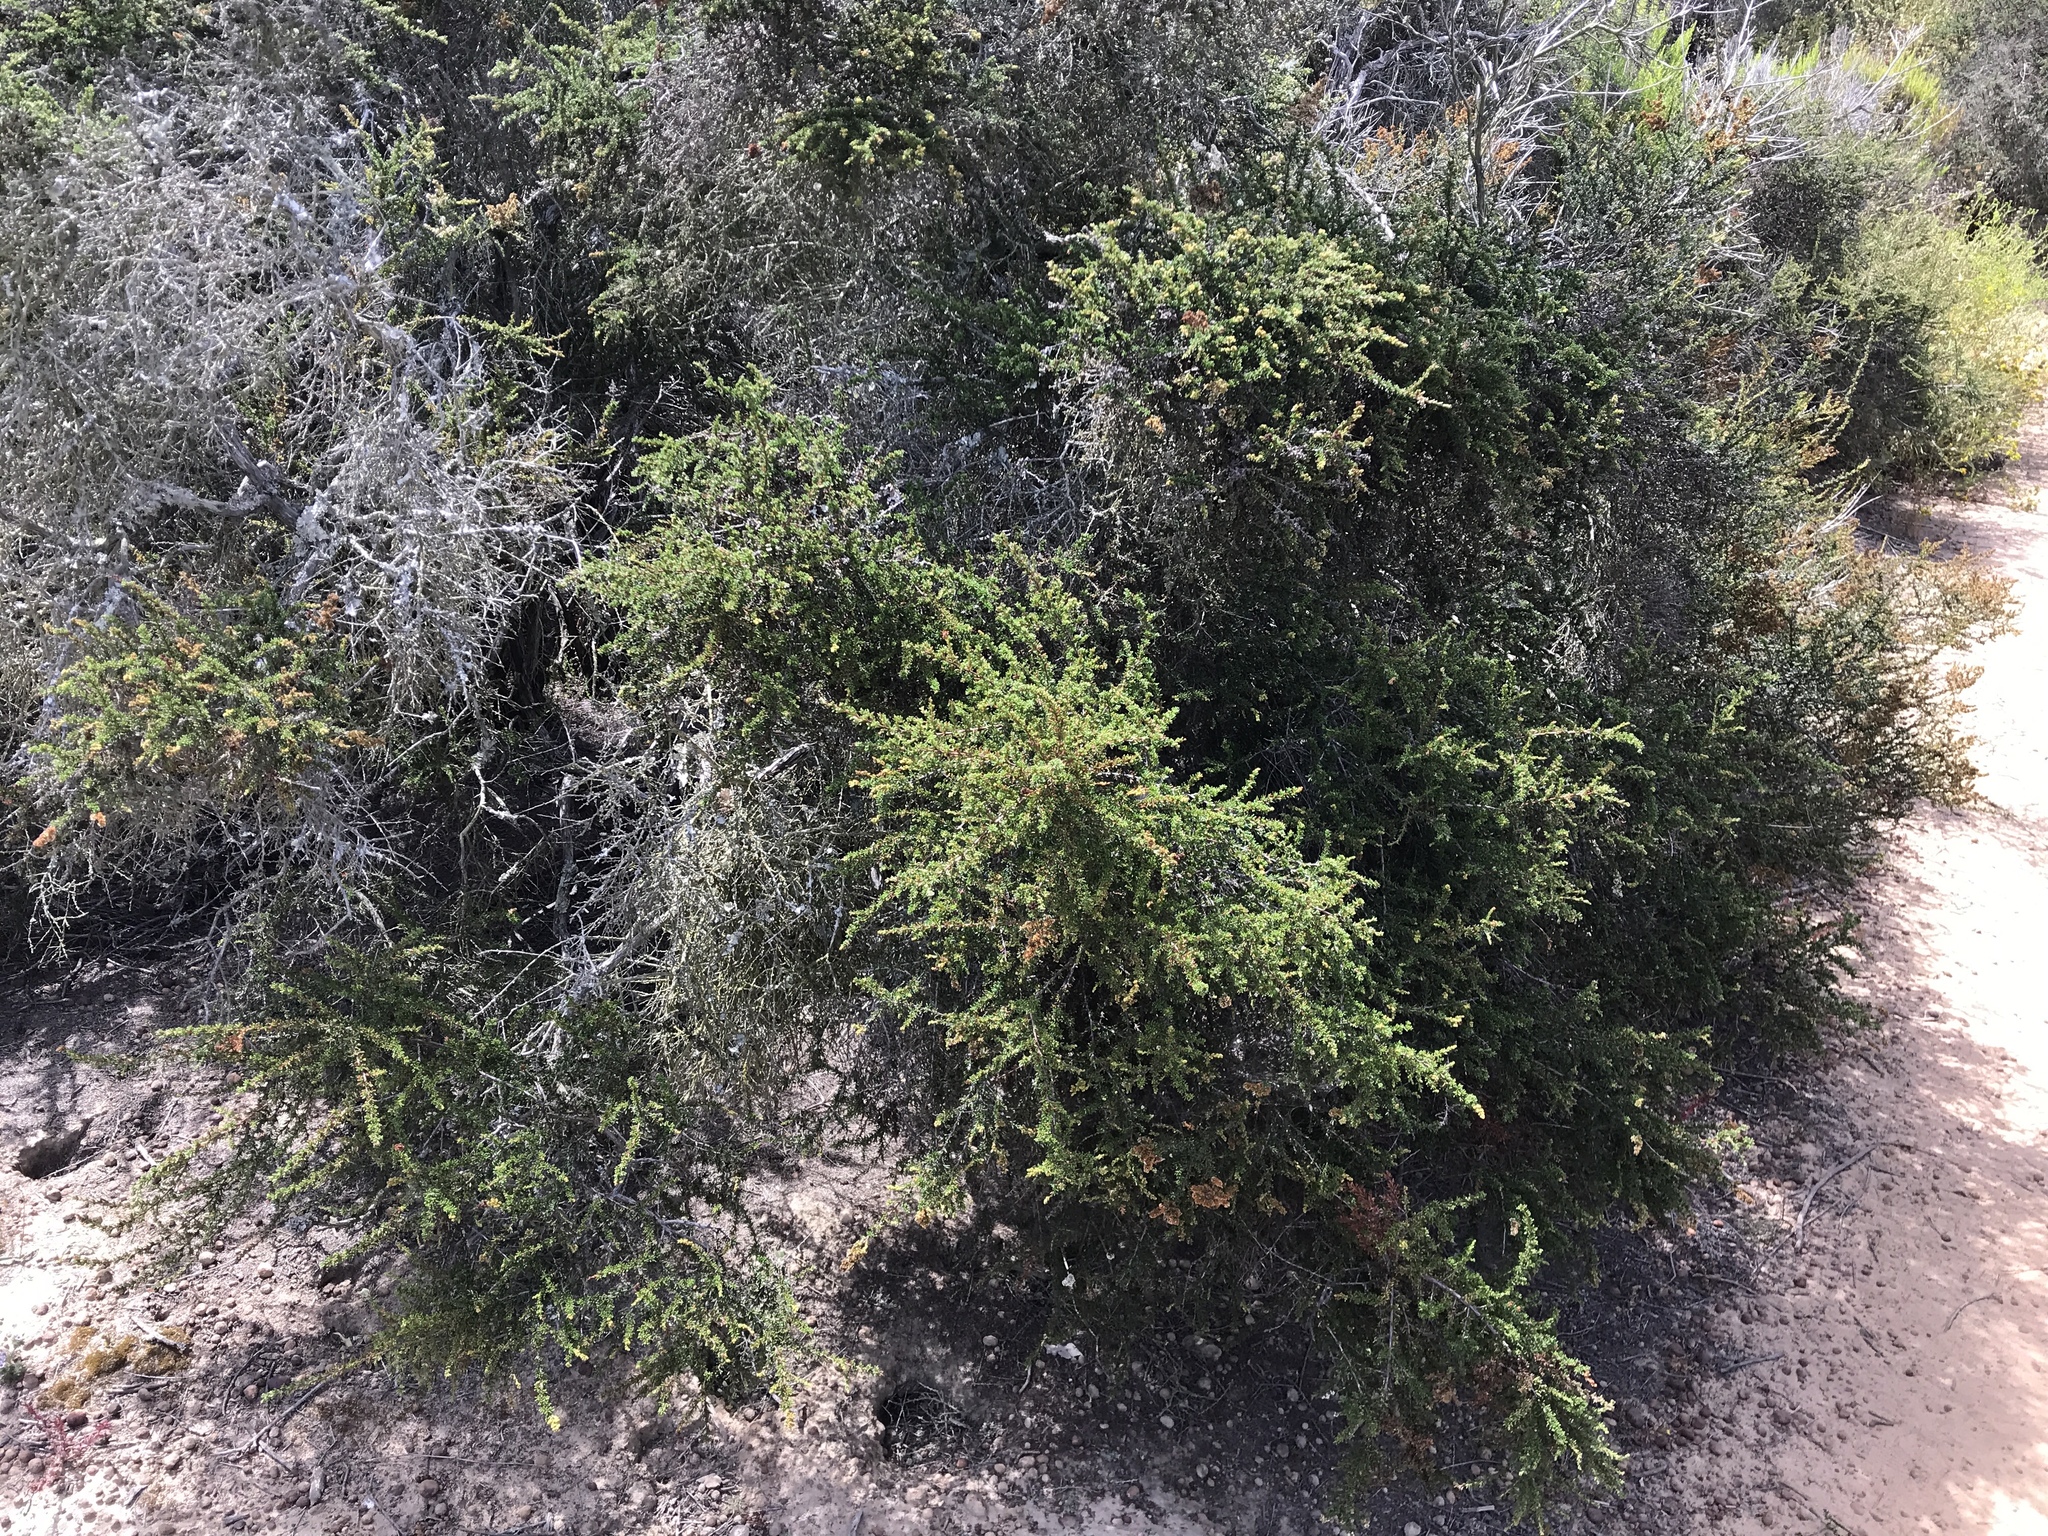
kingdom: Plantae
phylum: Tracheophyta
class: Magnoliopsida
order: Rosales
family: Rosaceae
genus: Adenostoma
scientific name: Adenostoma fasciculatum
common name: Chamise
